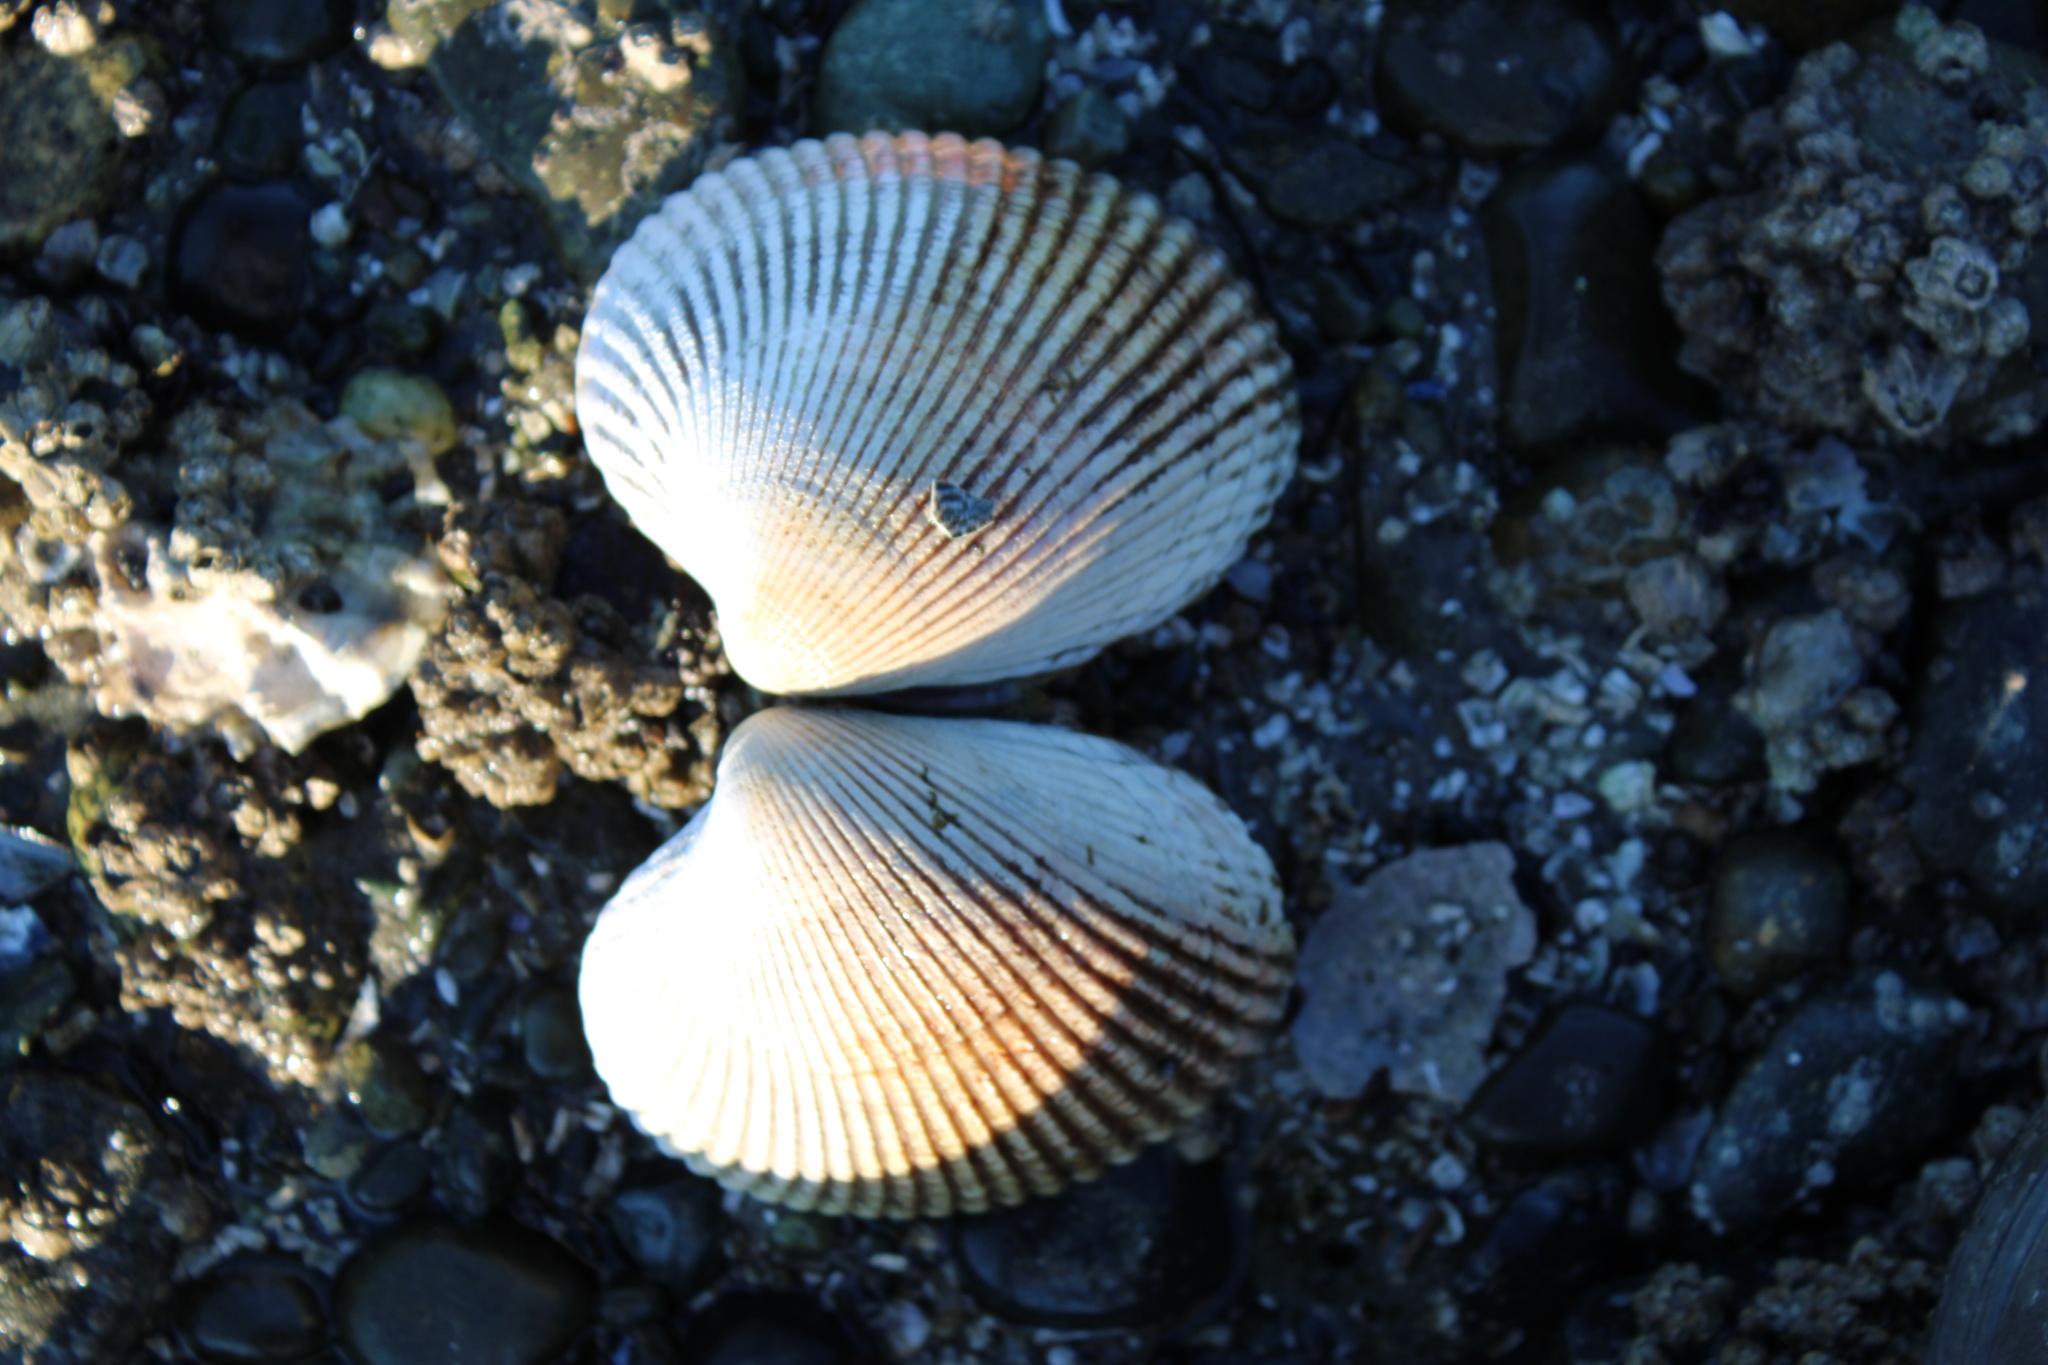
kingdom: Animalia
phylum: Mollusca
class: Bivalvia
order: Cardiida
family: Cardiidae
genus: Clinocardium
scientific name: Clinocardium nuttallii
